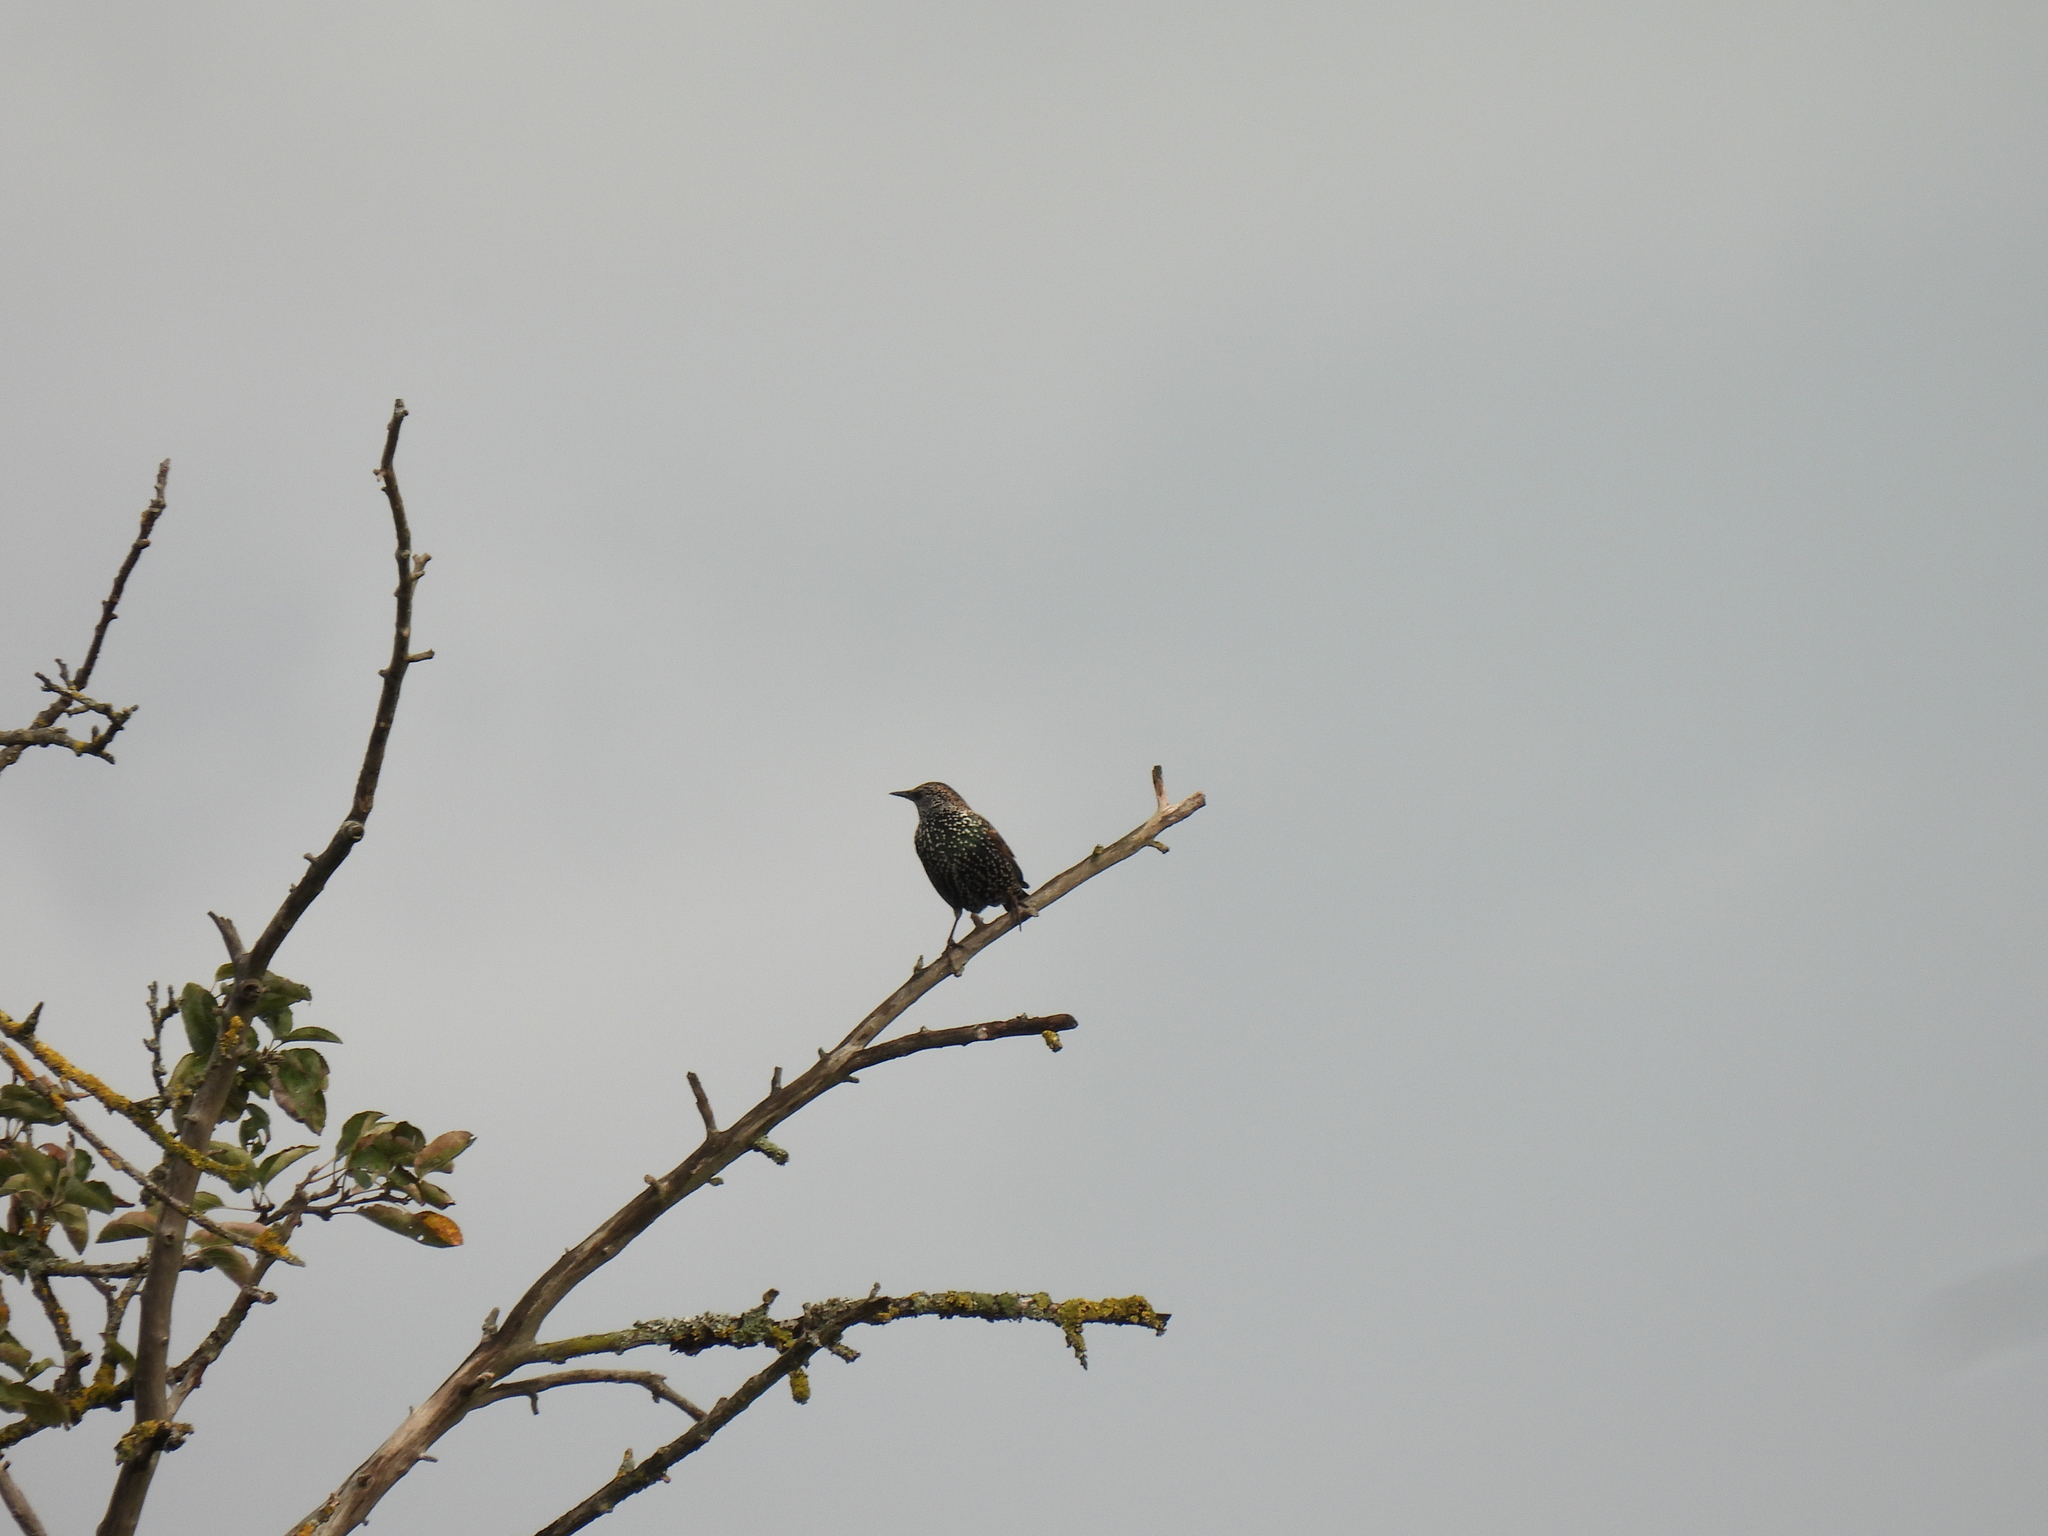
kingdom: Animalia
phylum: Chordata
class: Aves
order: Passeriformes
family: Sturnidae
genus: Sturnus
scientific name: Sturnus vulgaris
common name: Common starling
